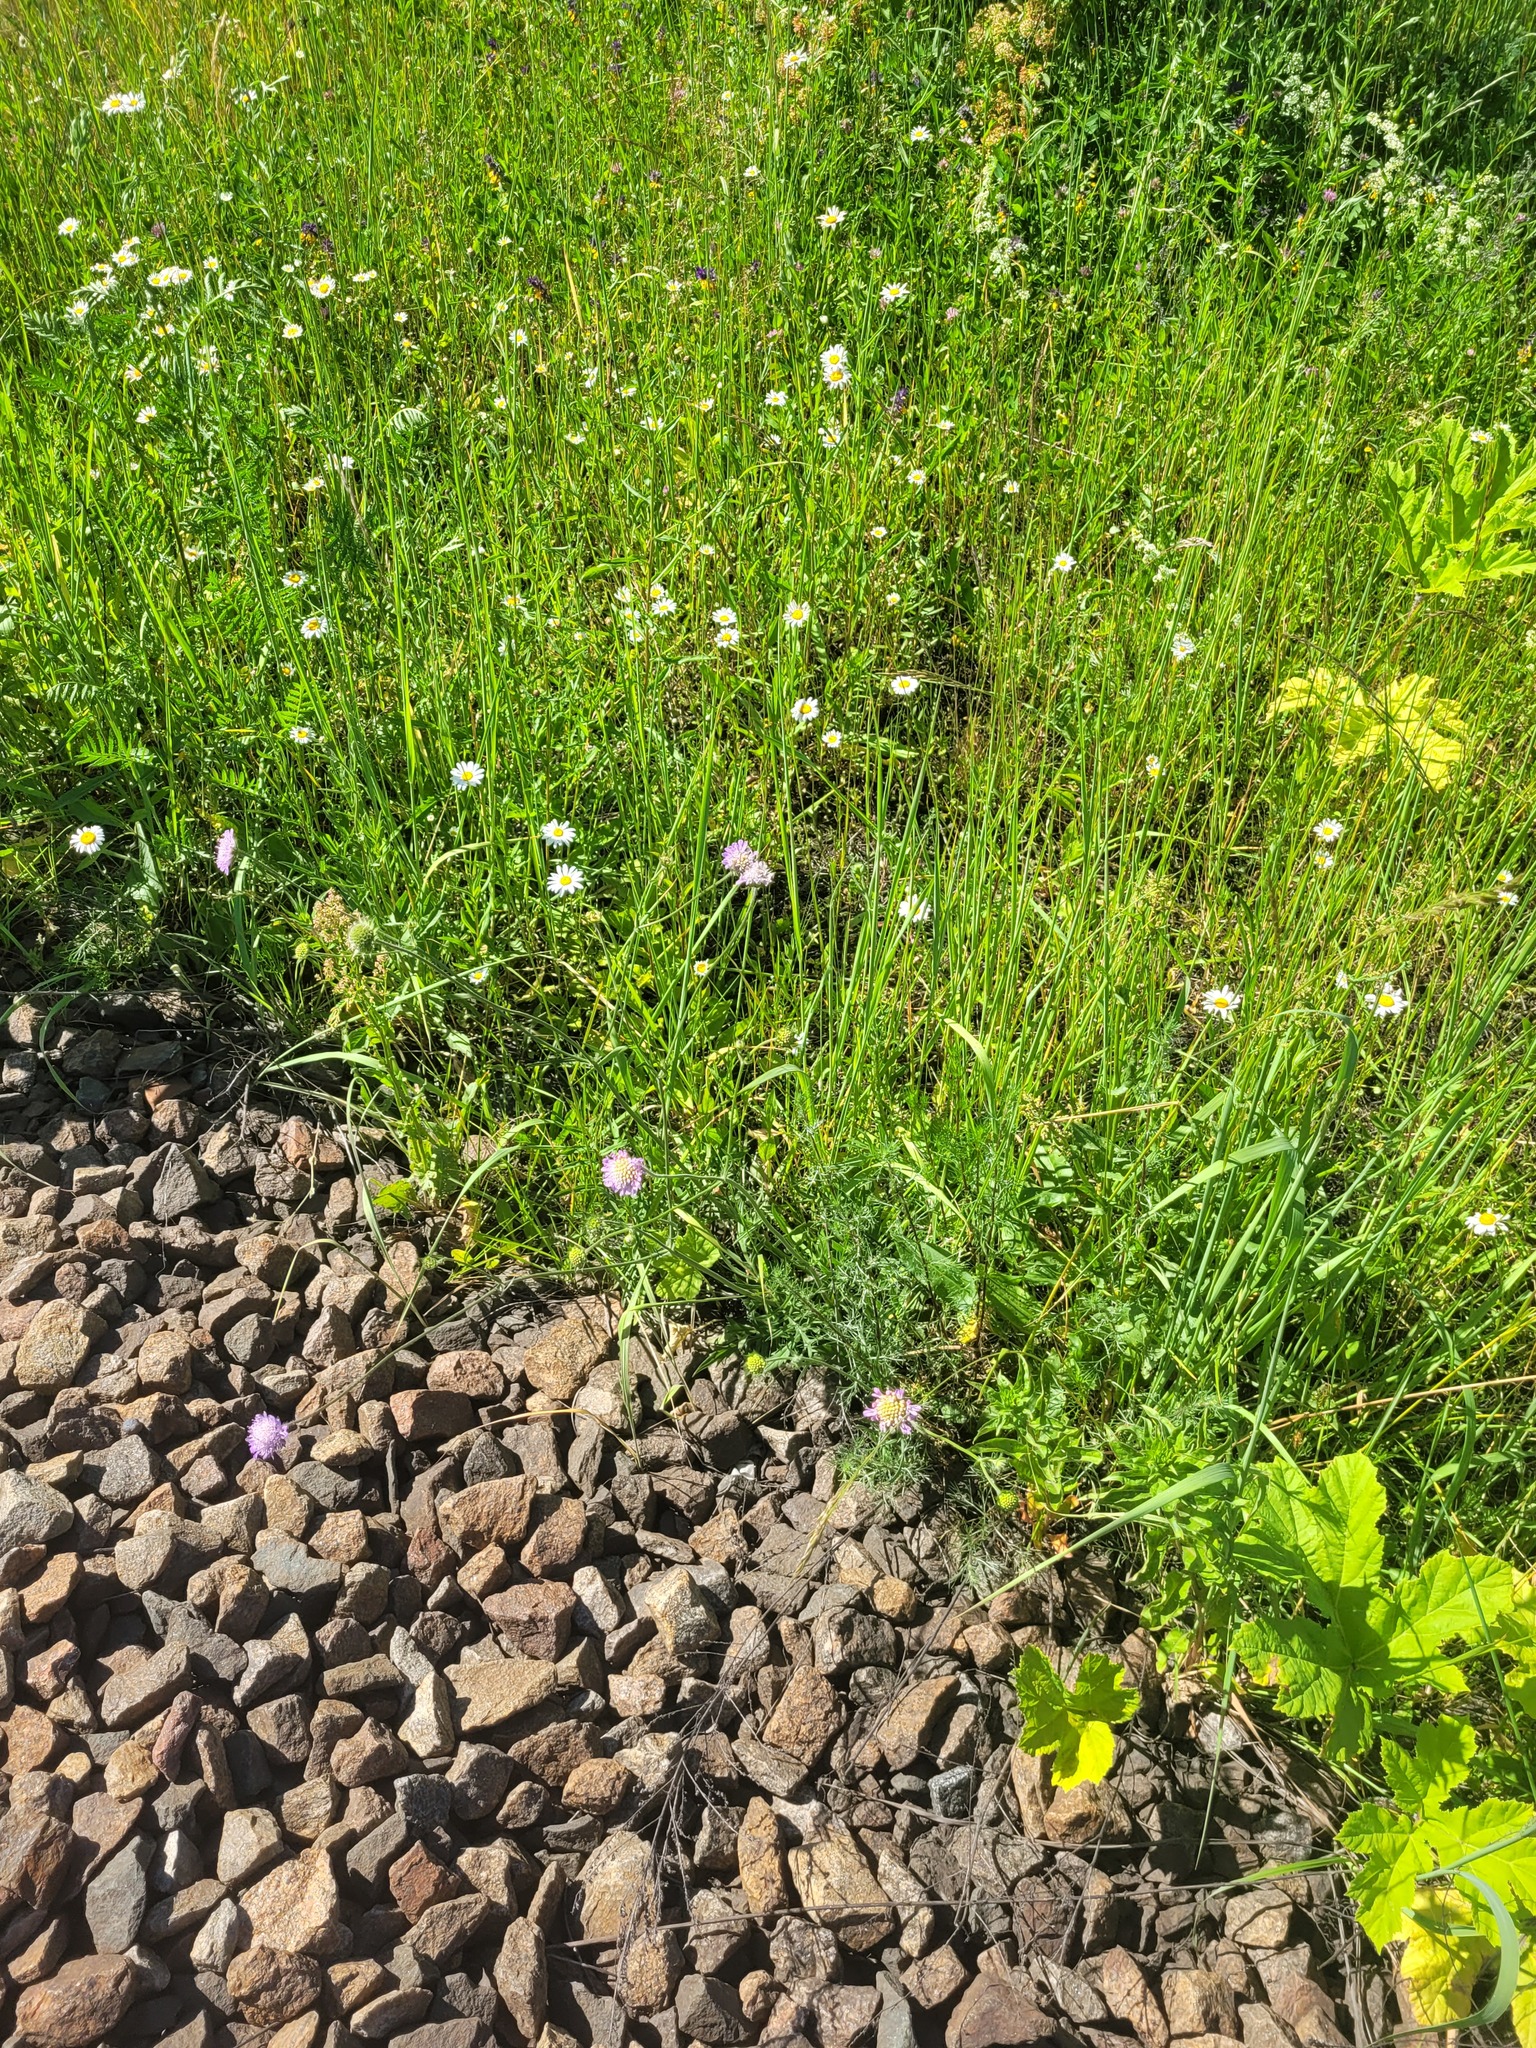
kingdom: Plantae
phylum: Tracheophyta
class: Magnoliopsida
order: Dipsacales
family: Caprifoliaceae
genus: Knautia
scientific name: Knautia arvensis
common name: Field scabiosa
